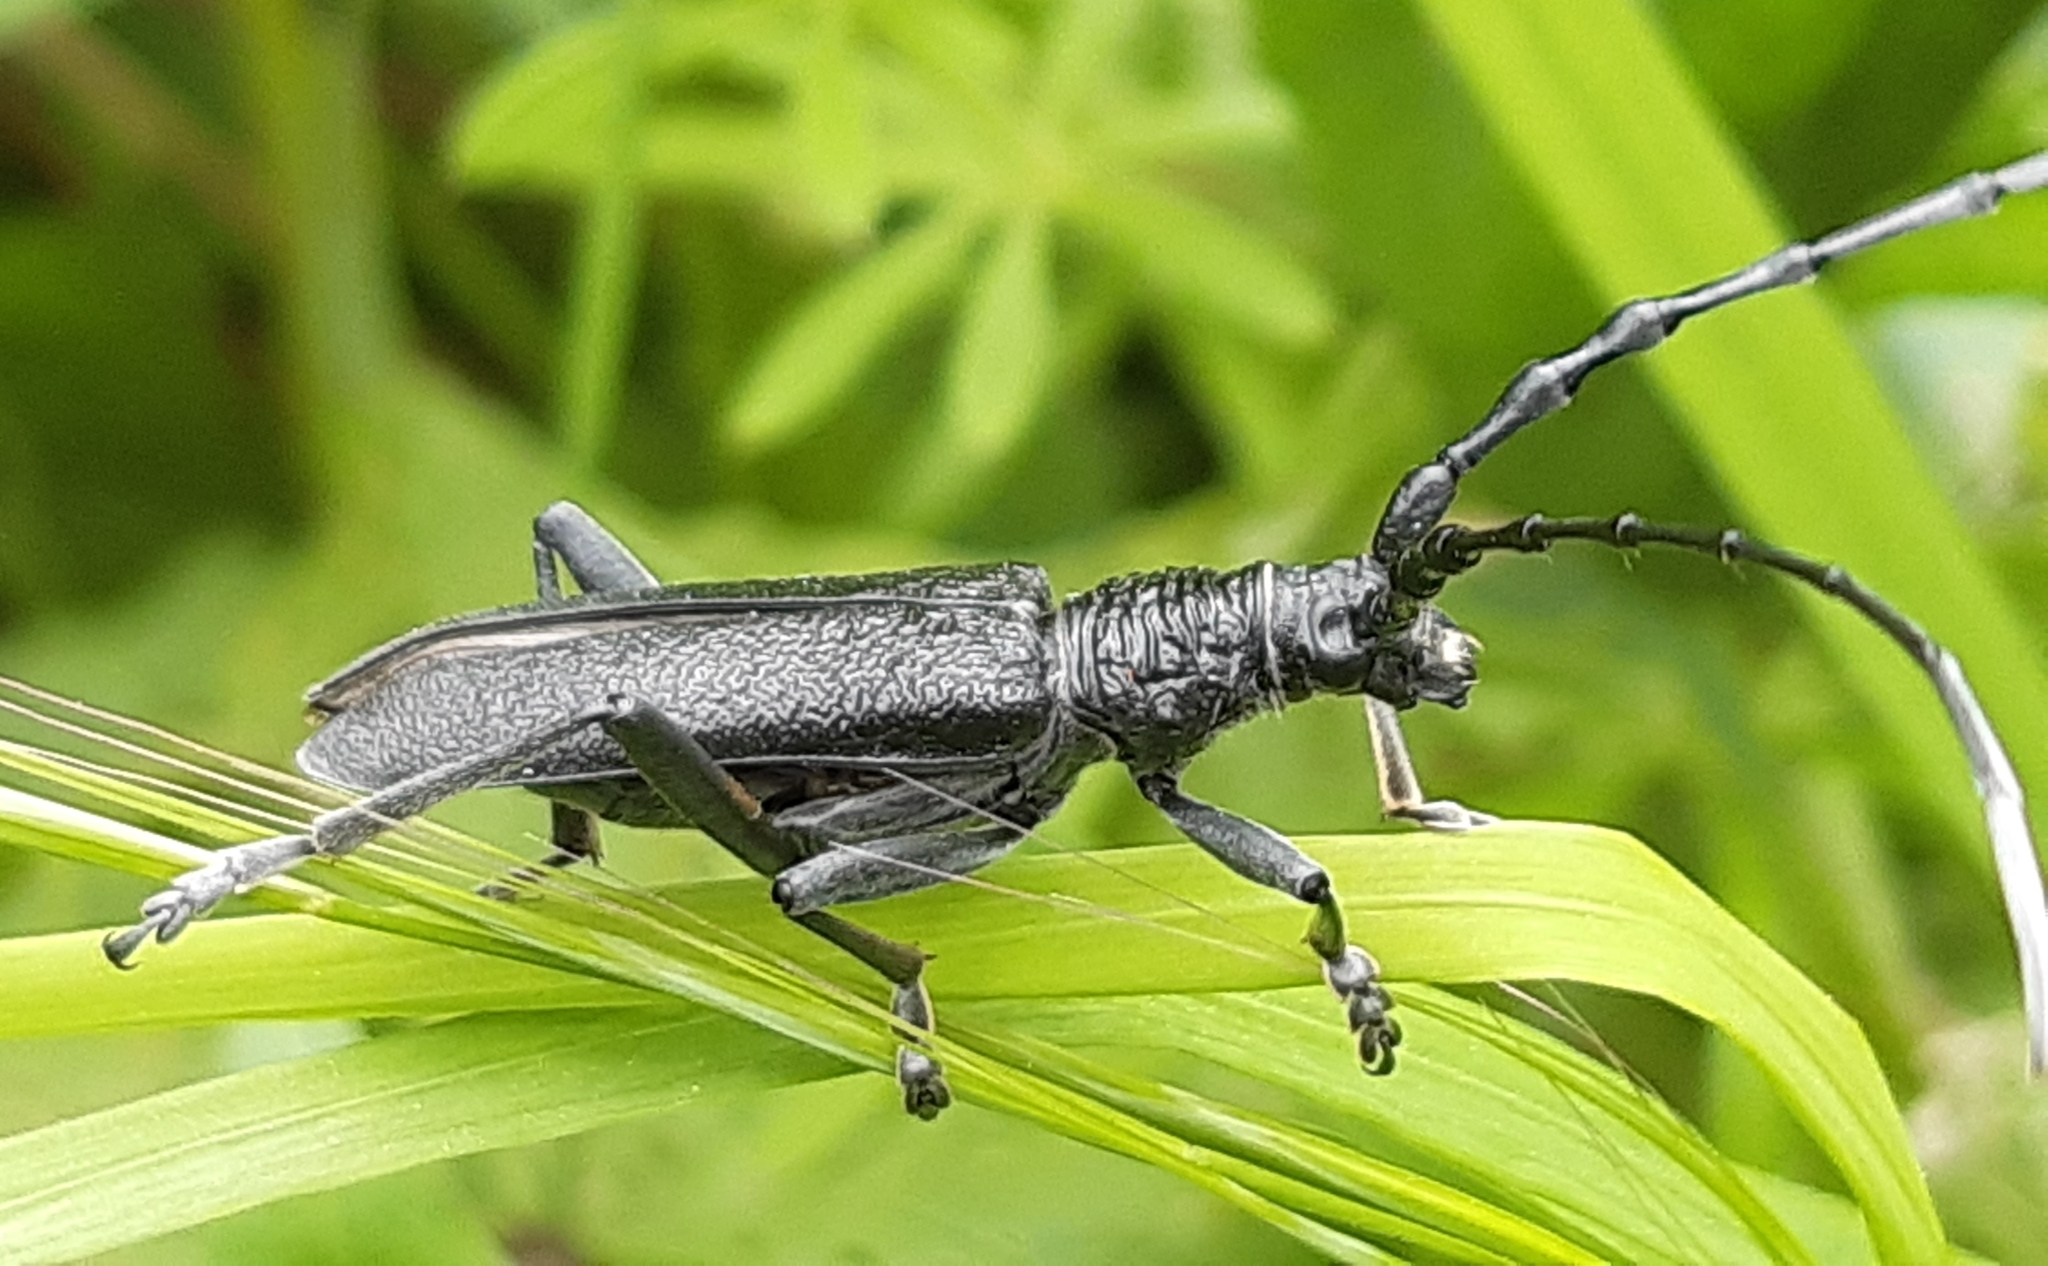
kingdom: Animalia
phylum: Arthropoda
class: Insecta
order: Coleoptera
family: Cerambycidae
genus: Cerambyx
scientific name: Cerambyx scopolii
